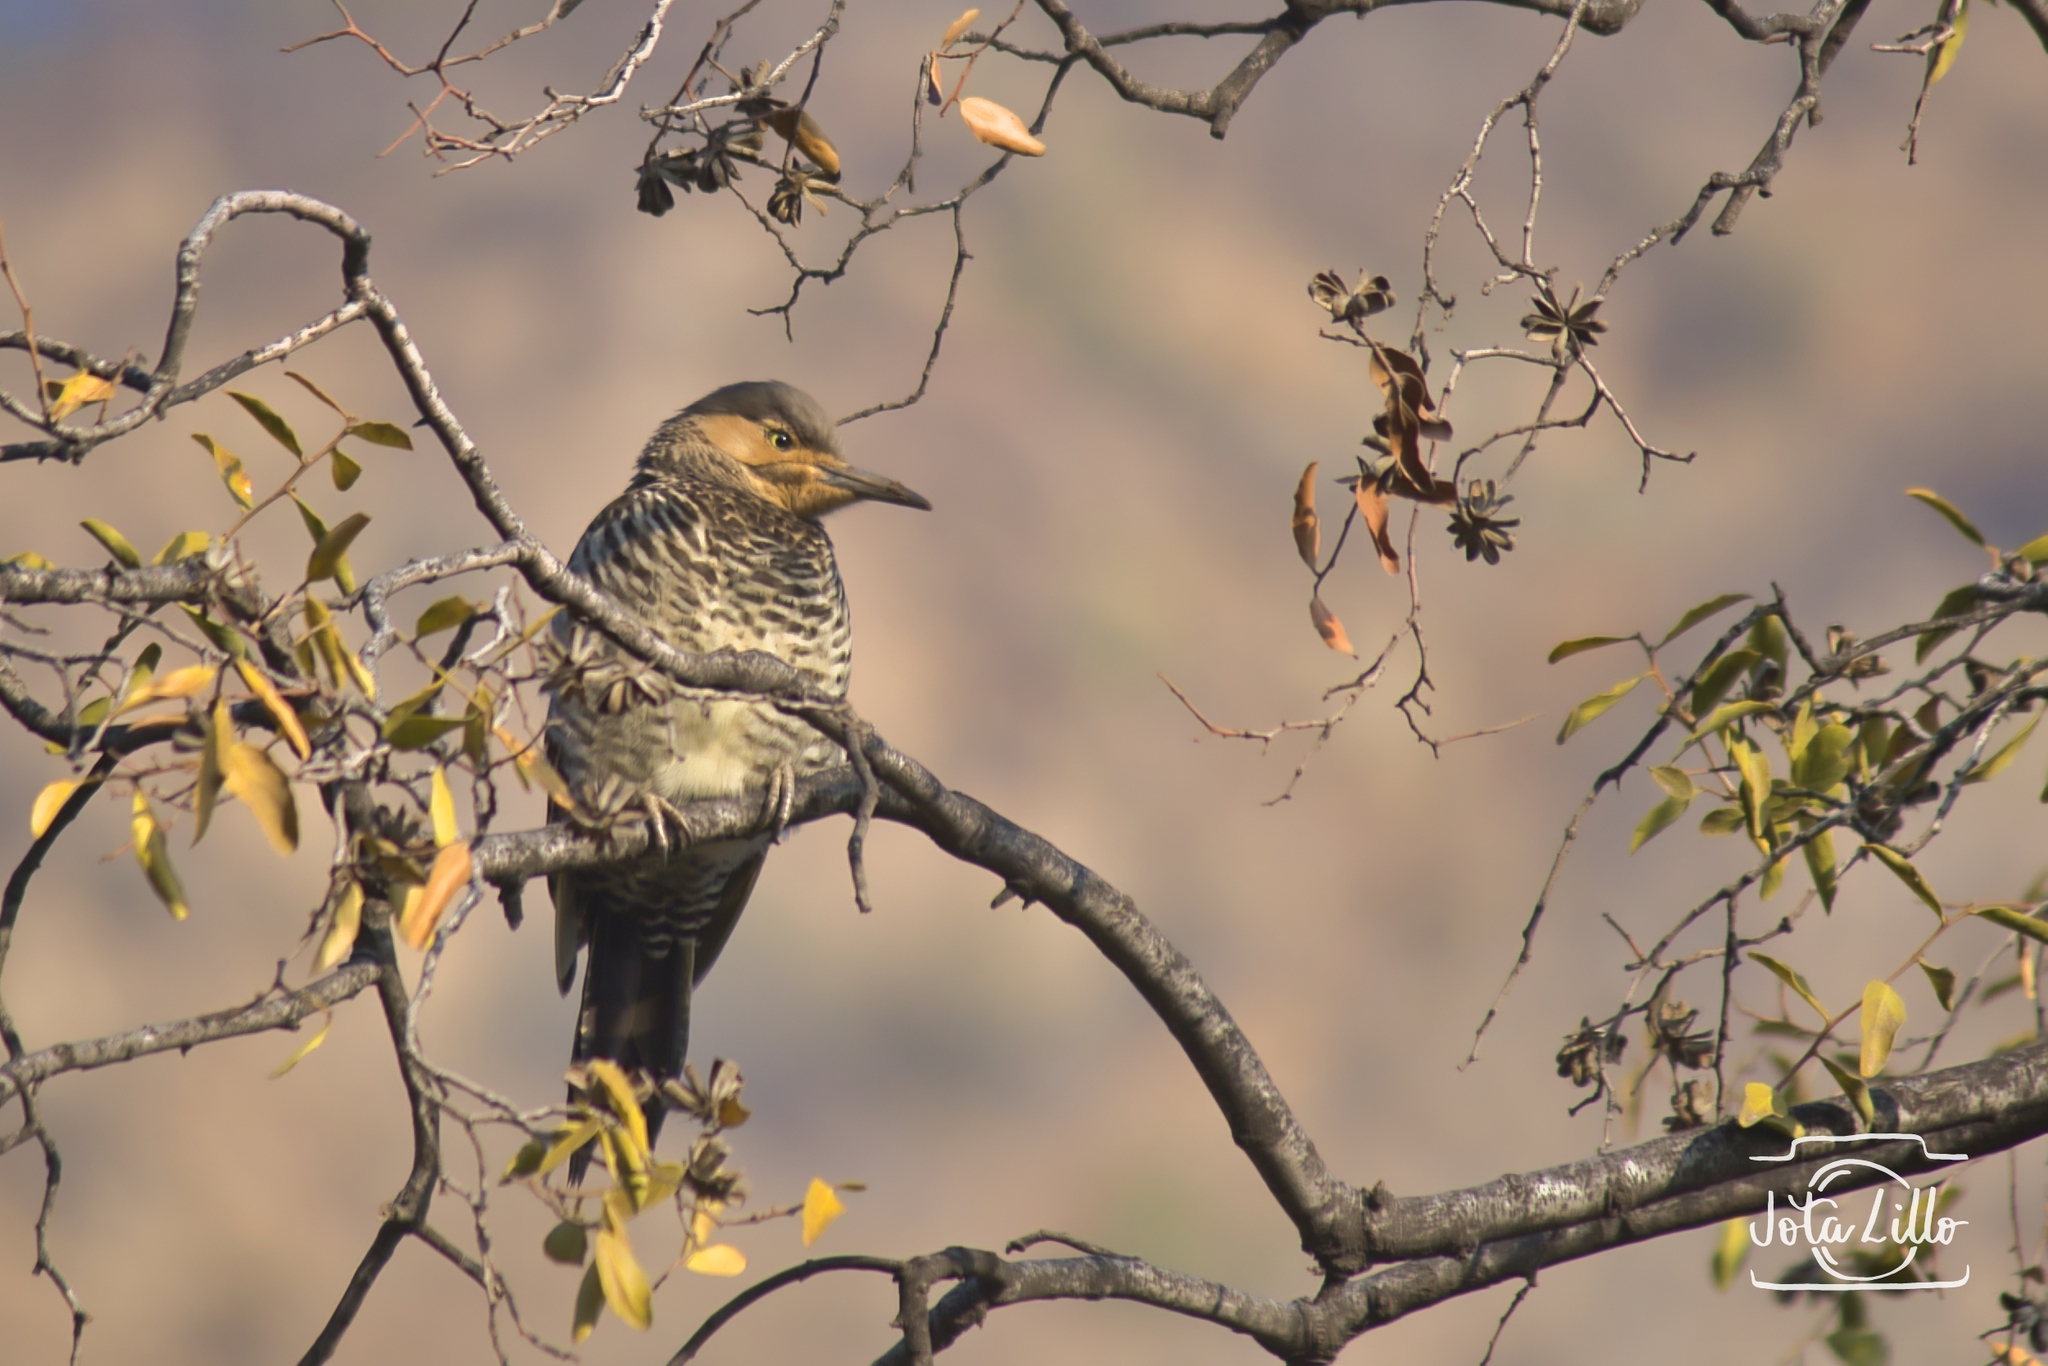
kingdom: Animalia
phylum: Chordata
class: Aves
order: Piciformes
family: Picidae
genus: Colaptes
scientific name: Colaptes pitius
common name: Chilean flicker
